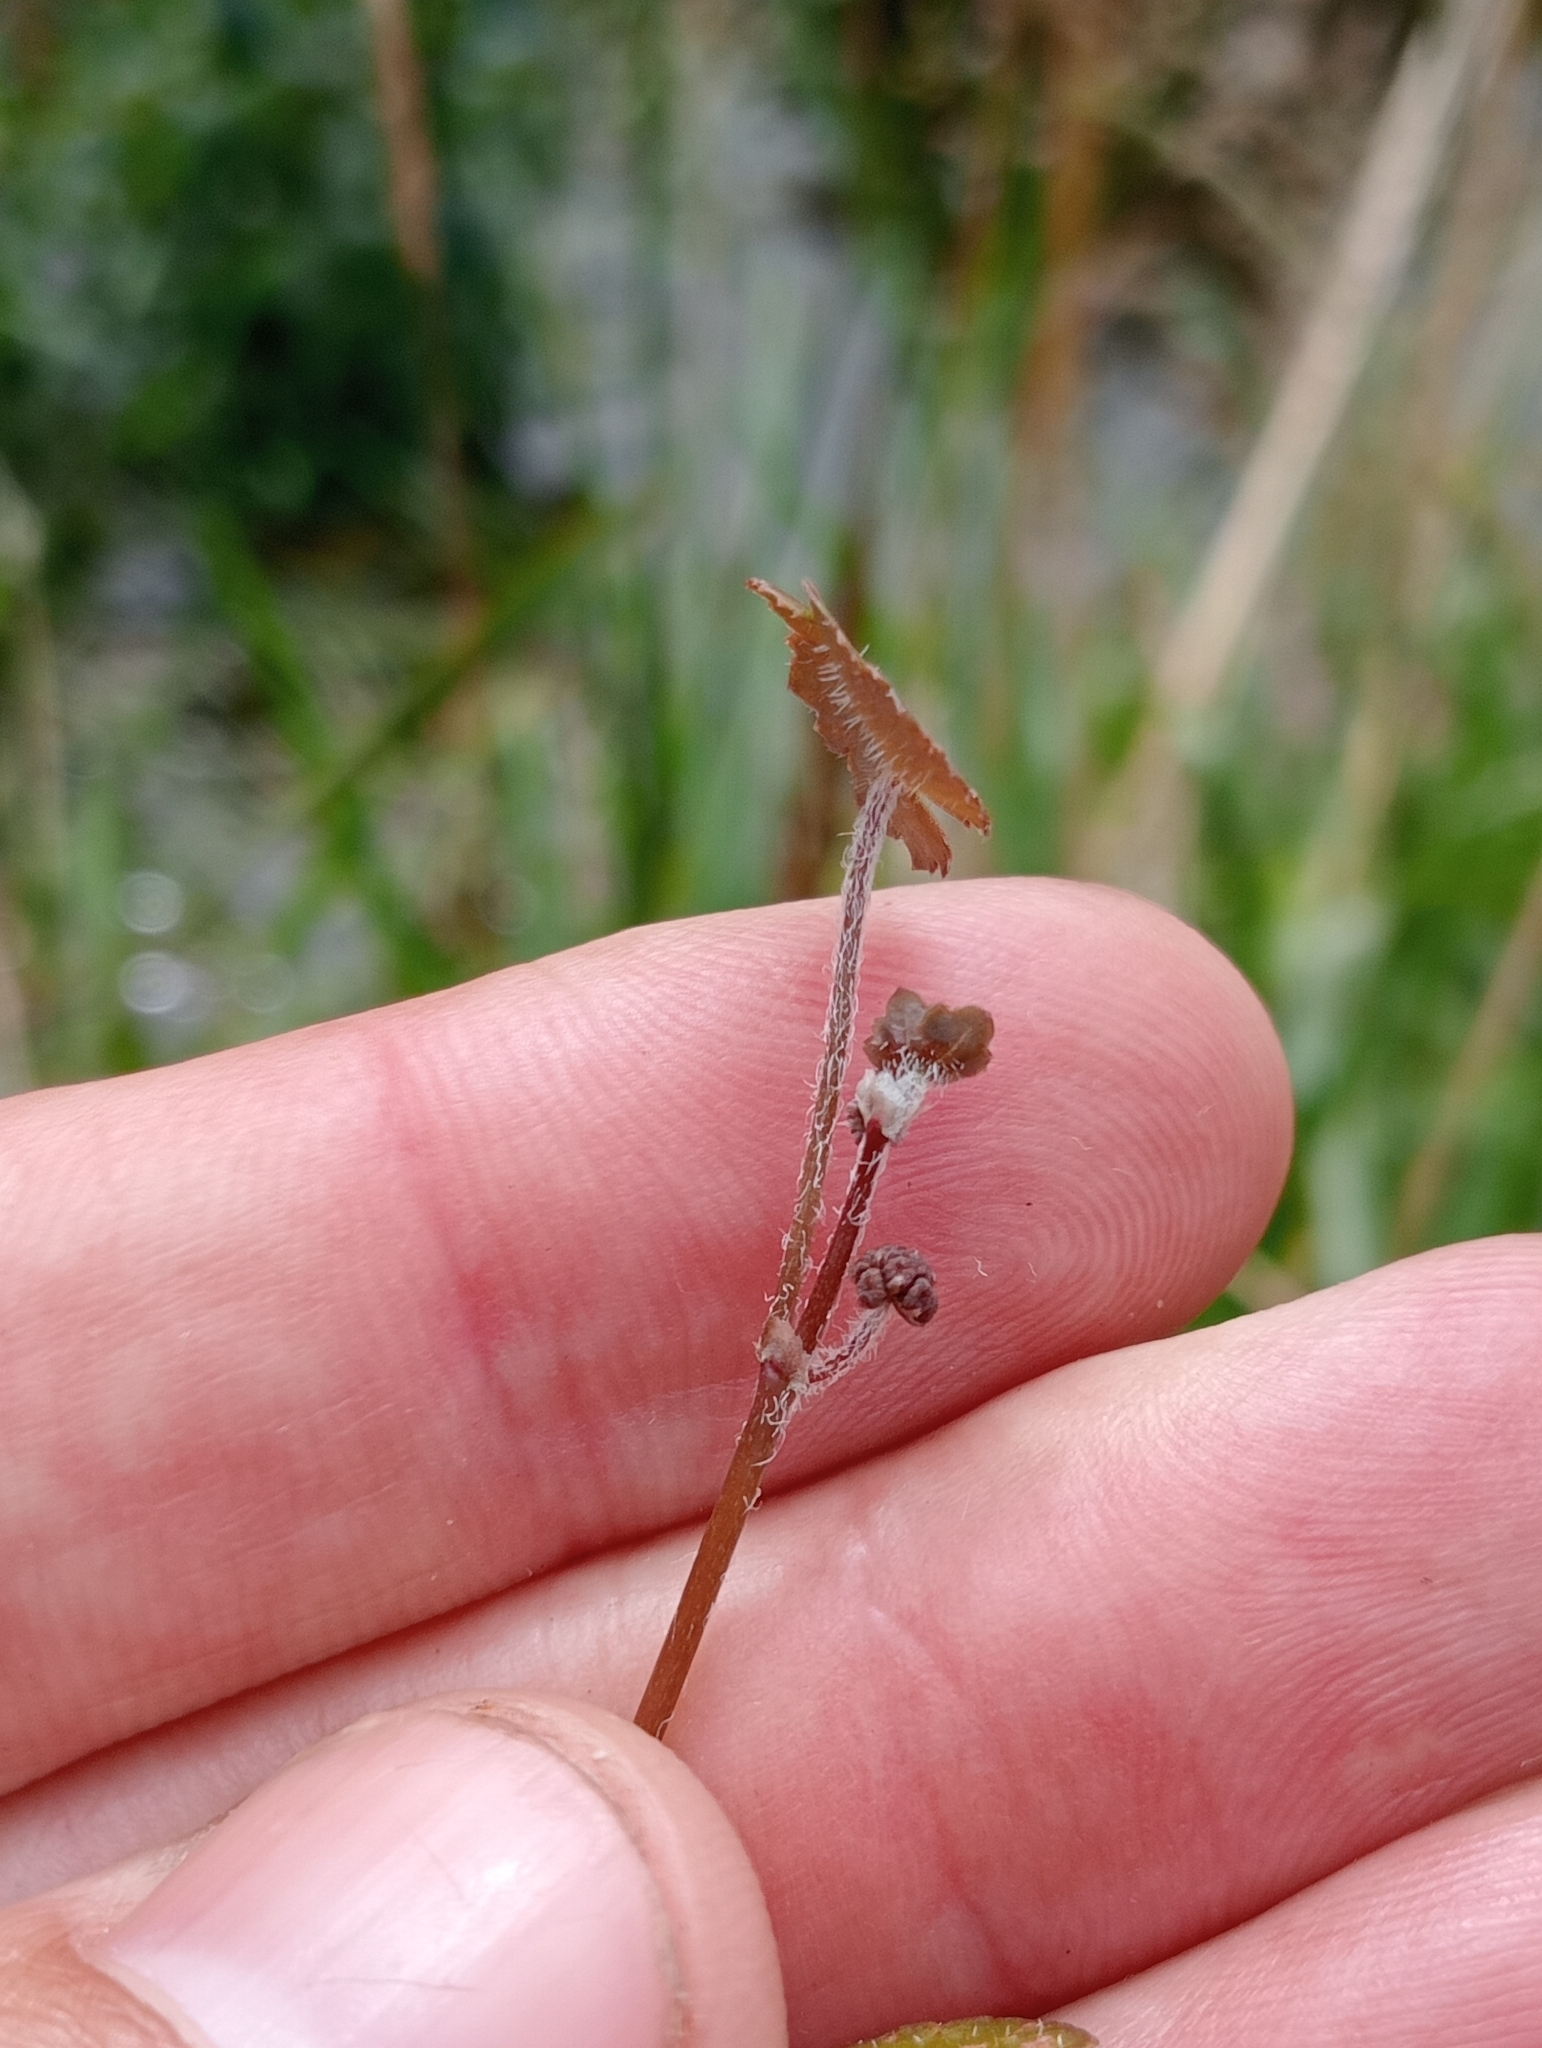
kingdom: Plantae
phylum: Tracheophyta
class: Magnoliopsida
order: Apiales
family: Araliaceae
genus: Hydrocotyle
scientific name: Hydrocotyle novae-zeelandiae
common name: New zealand pennywort
